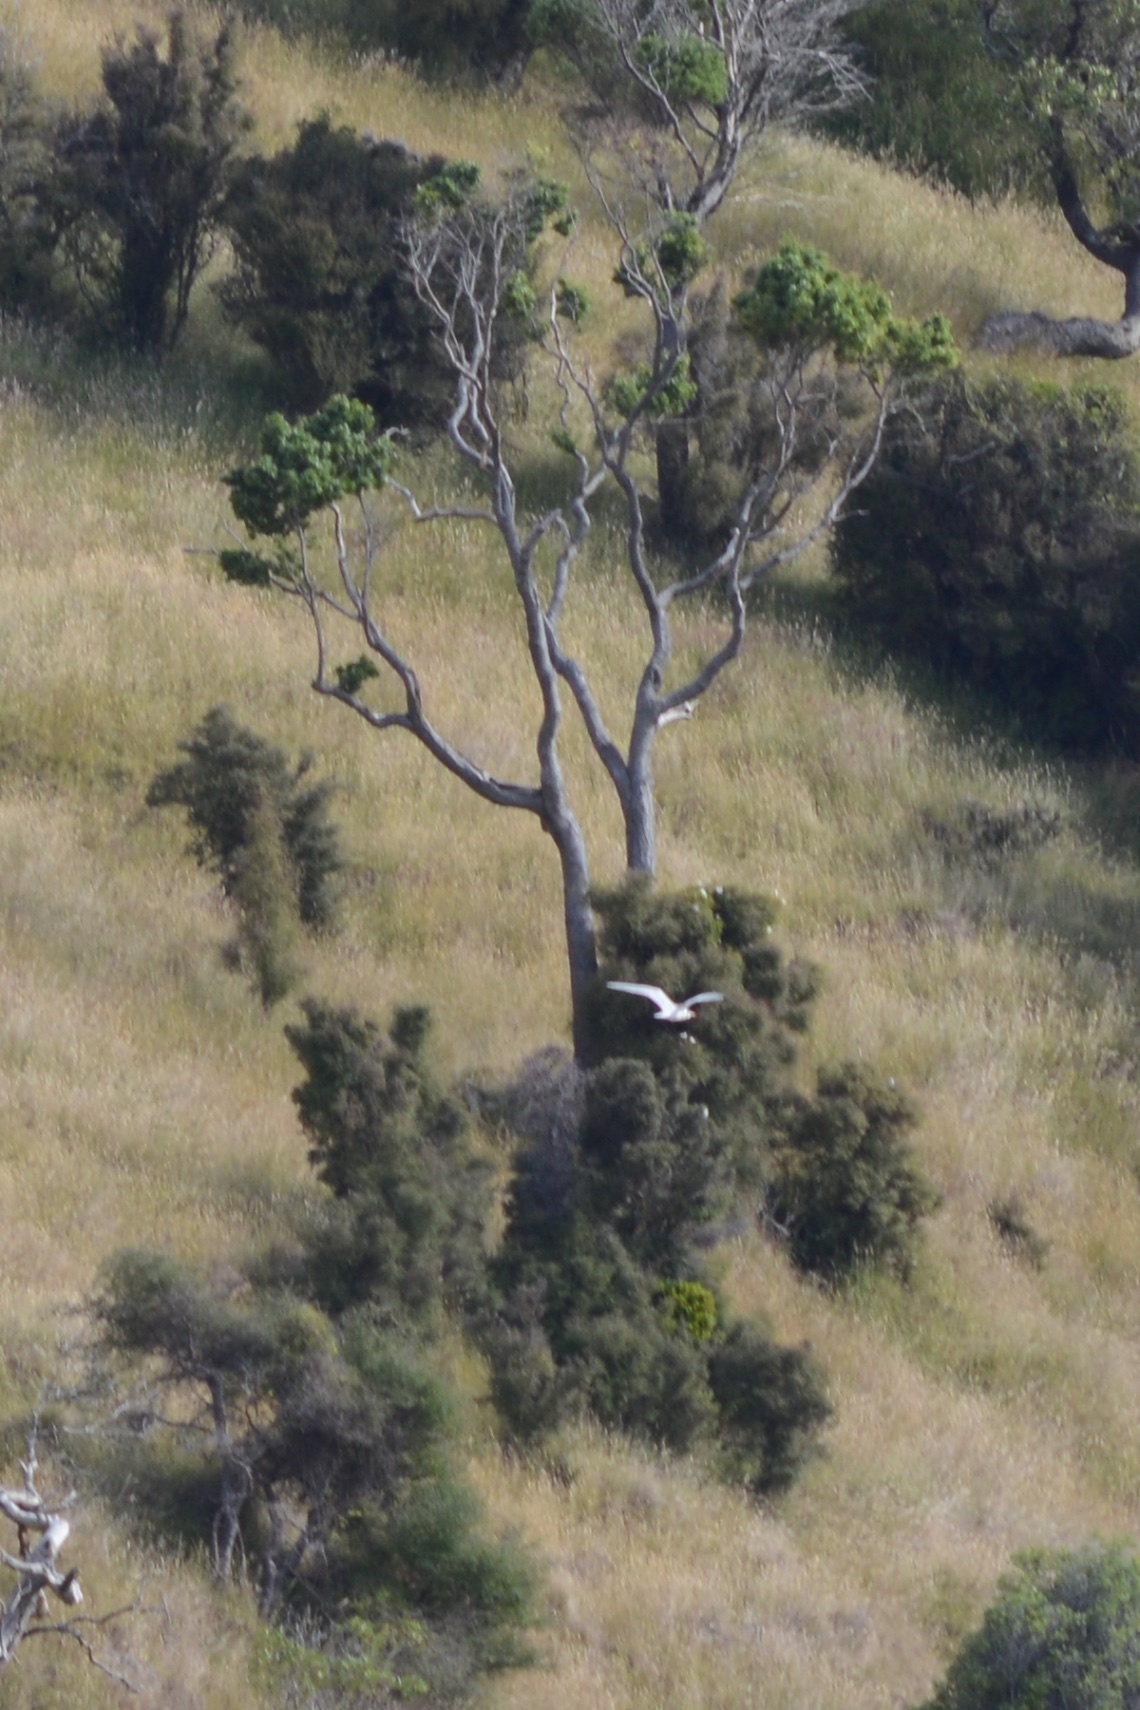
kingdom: Animalia
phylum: Chordata
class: Aves
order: Charadriiformes
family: Laridae
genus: Chroicocephalus
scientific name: Chroicocephalus novaehollandiae
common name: Silver gull
